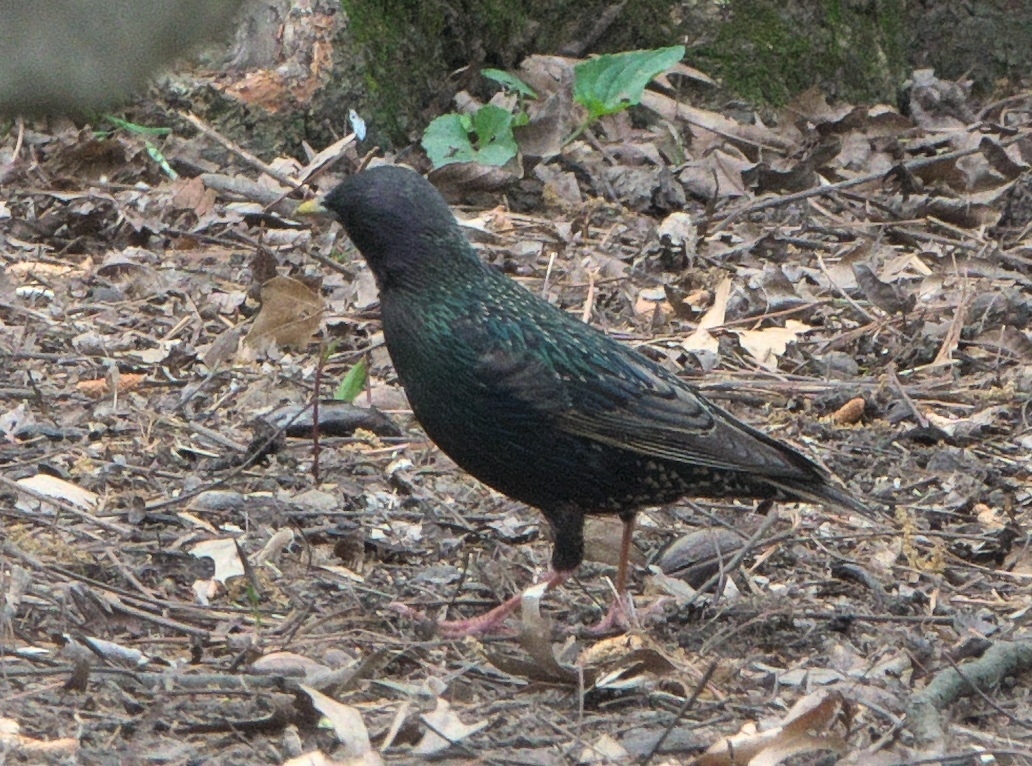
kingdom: Animalia
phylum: Chordata
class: Aves
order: Passeriformes
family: Sturnidae
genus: Sturnus
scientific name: Sturnus vulgaris
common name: Common starling
